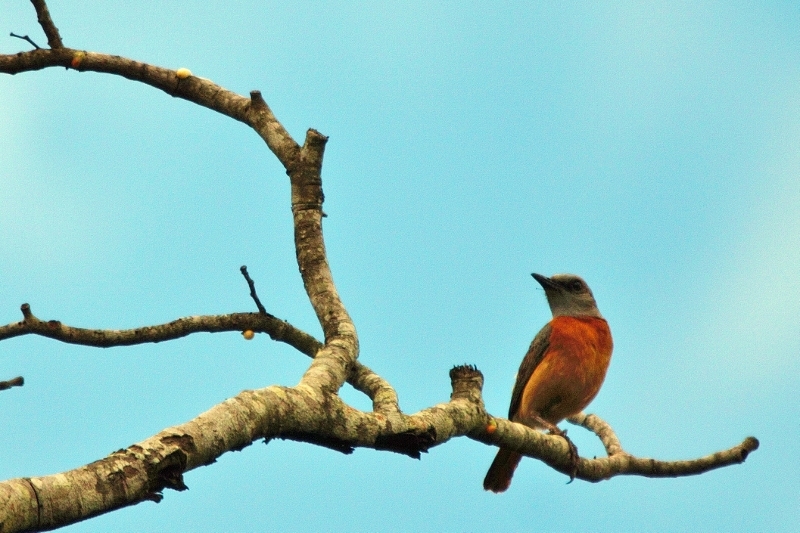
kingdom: Animalia
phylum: Chordata
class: Aves
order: Passeriformes
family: Muscicapidae
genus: Monticola
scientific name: Monticola angolensis
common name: Miombo rock thrush
